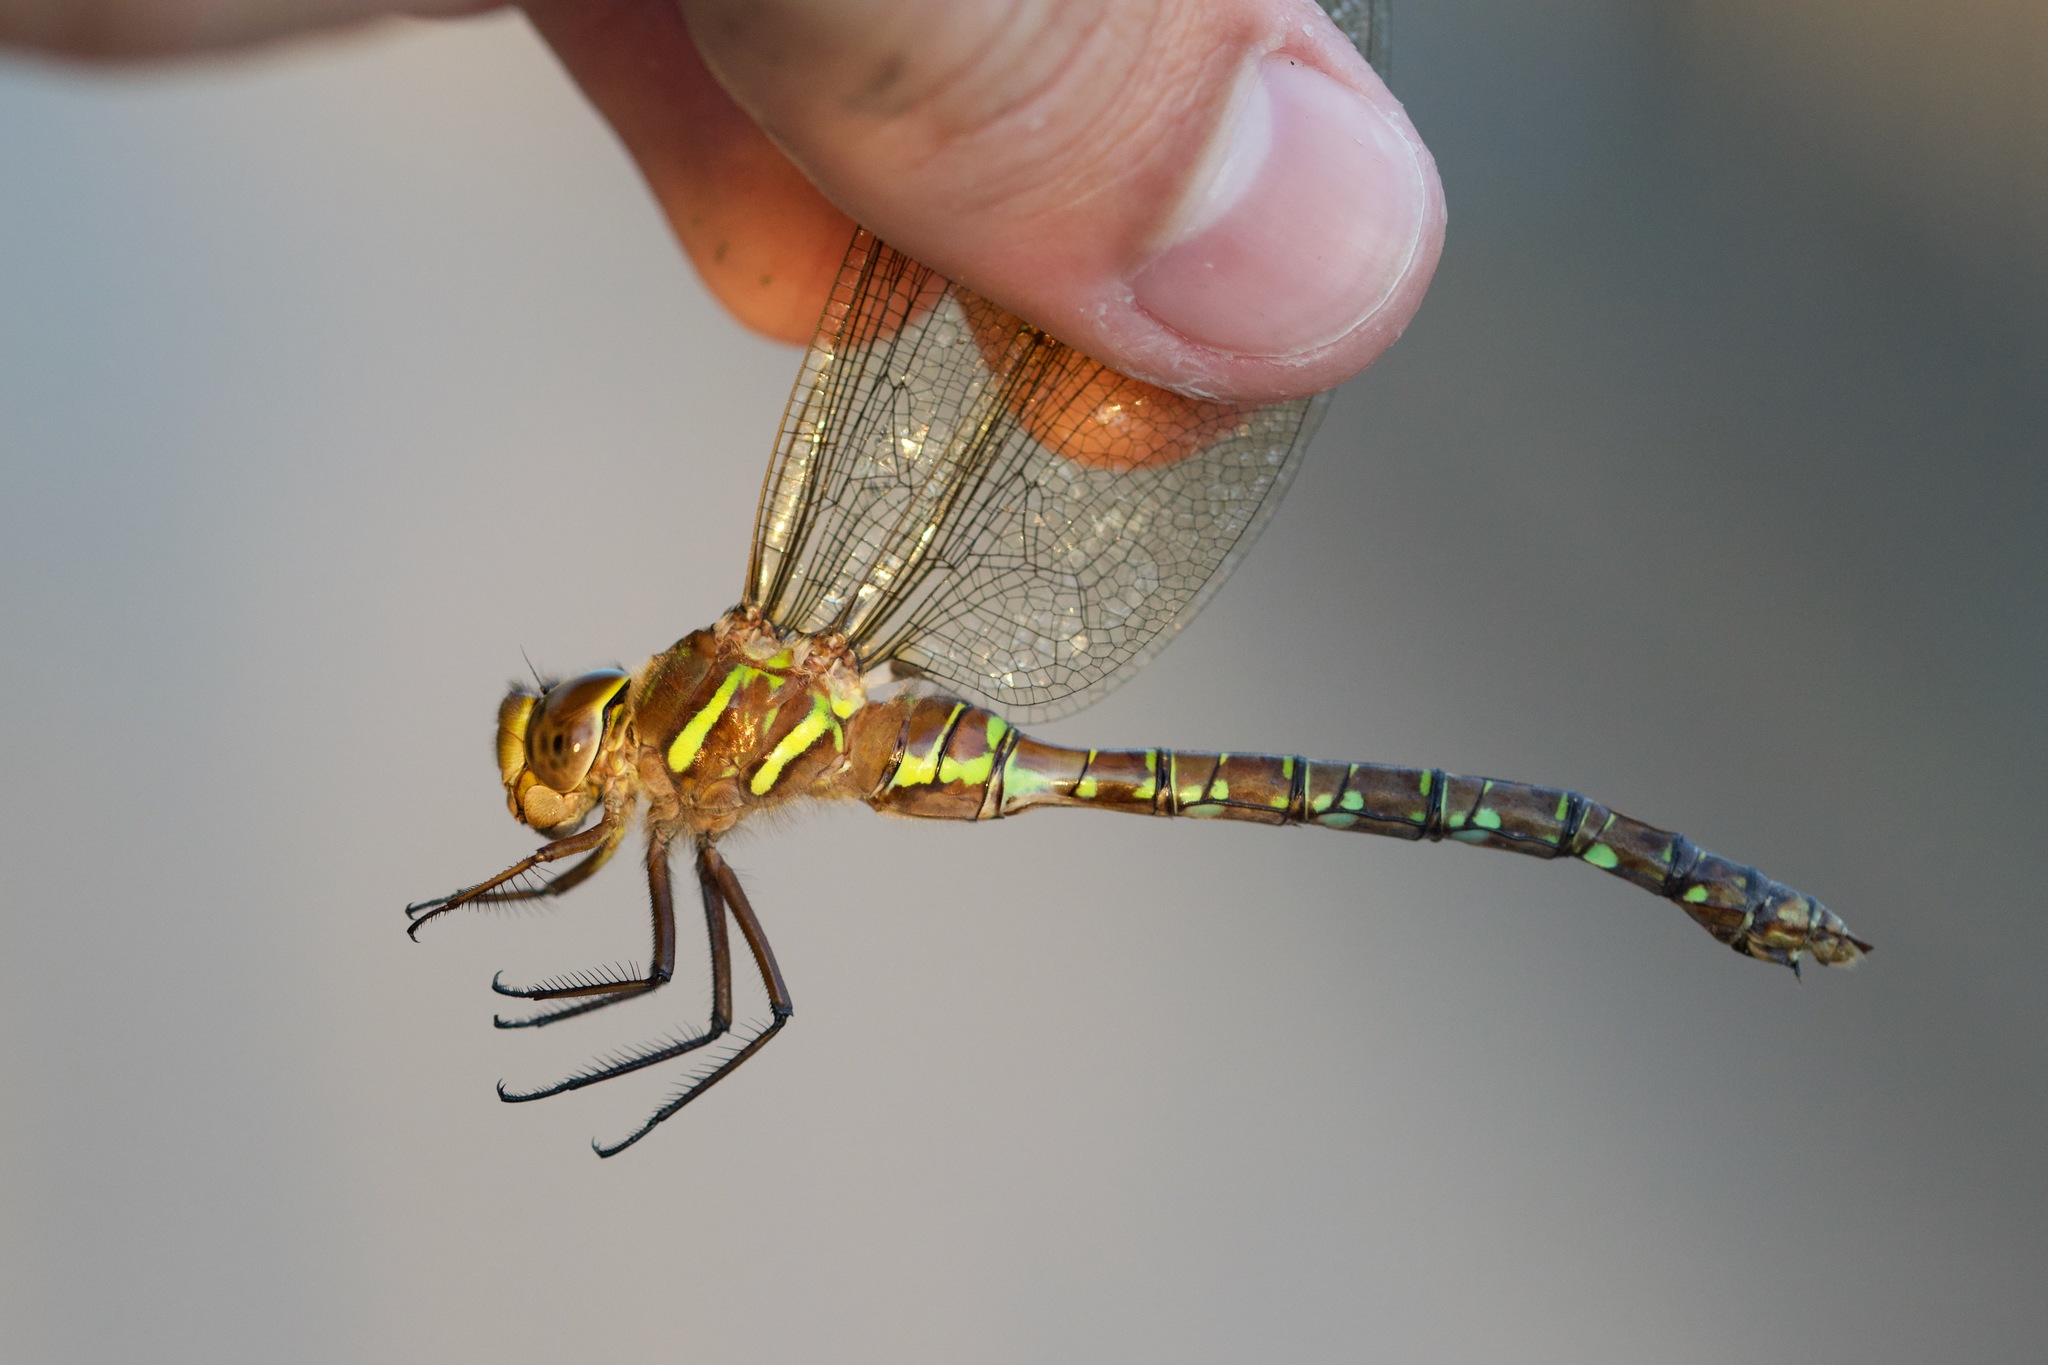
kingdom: Animalia
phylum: Arthropoda
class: Insecta
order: Odonata
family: Aeshnidae
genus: Aeshna
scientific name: Aeshna umbrosa
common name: Shadow darner
